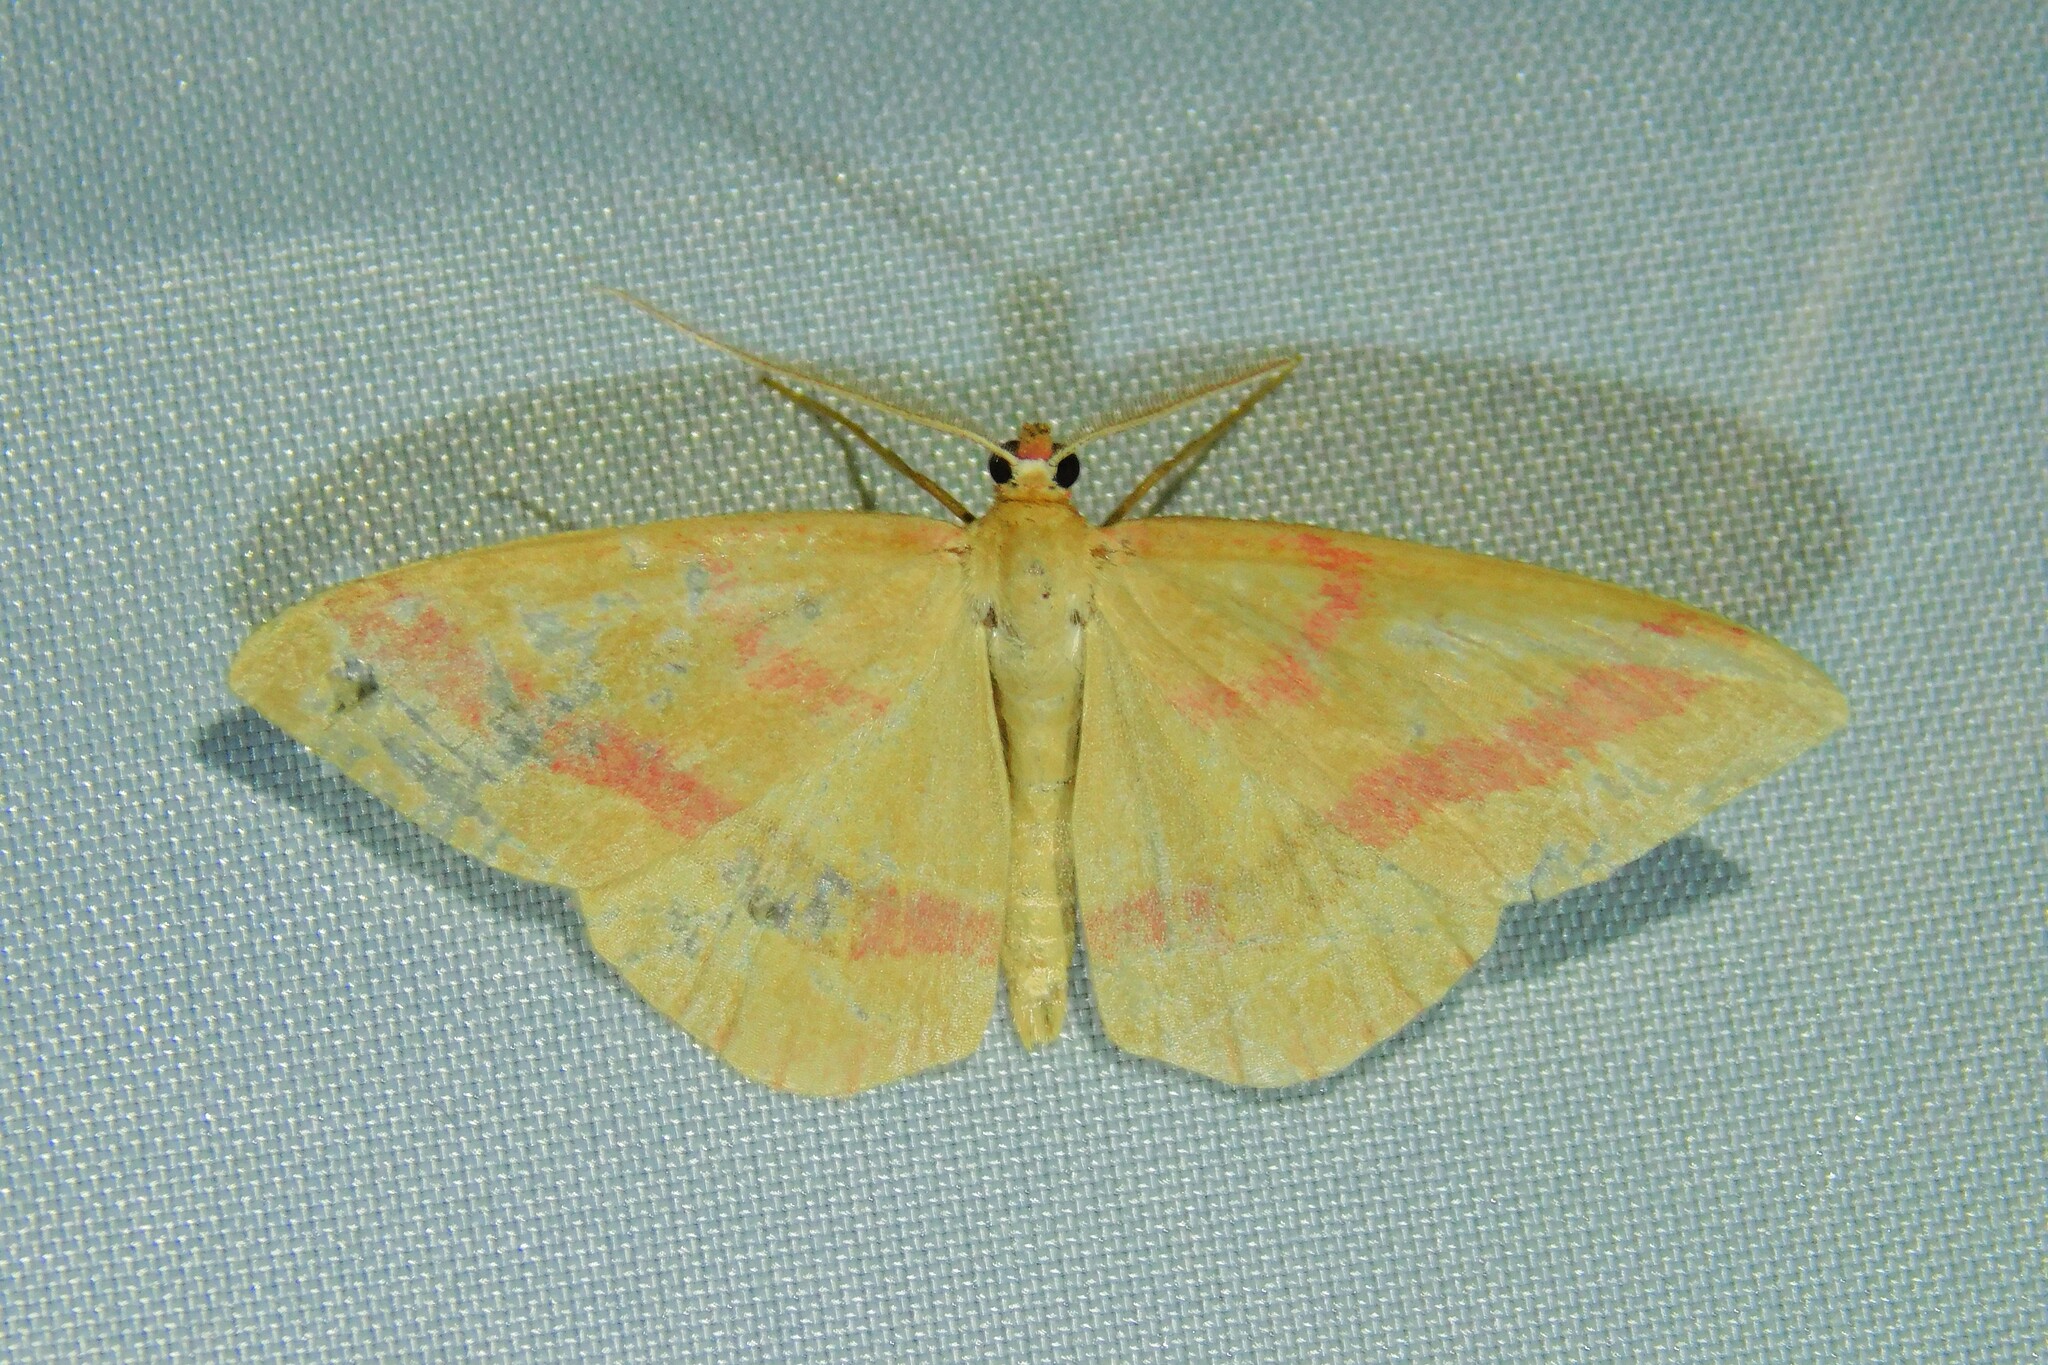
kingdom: Animalia
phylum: Arthropoda
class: Insecta
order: Lepidoptera
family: Geometridae
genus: Rhodostrophia
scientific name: Rhodostrophia calabra
